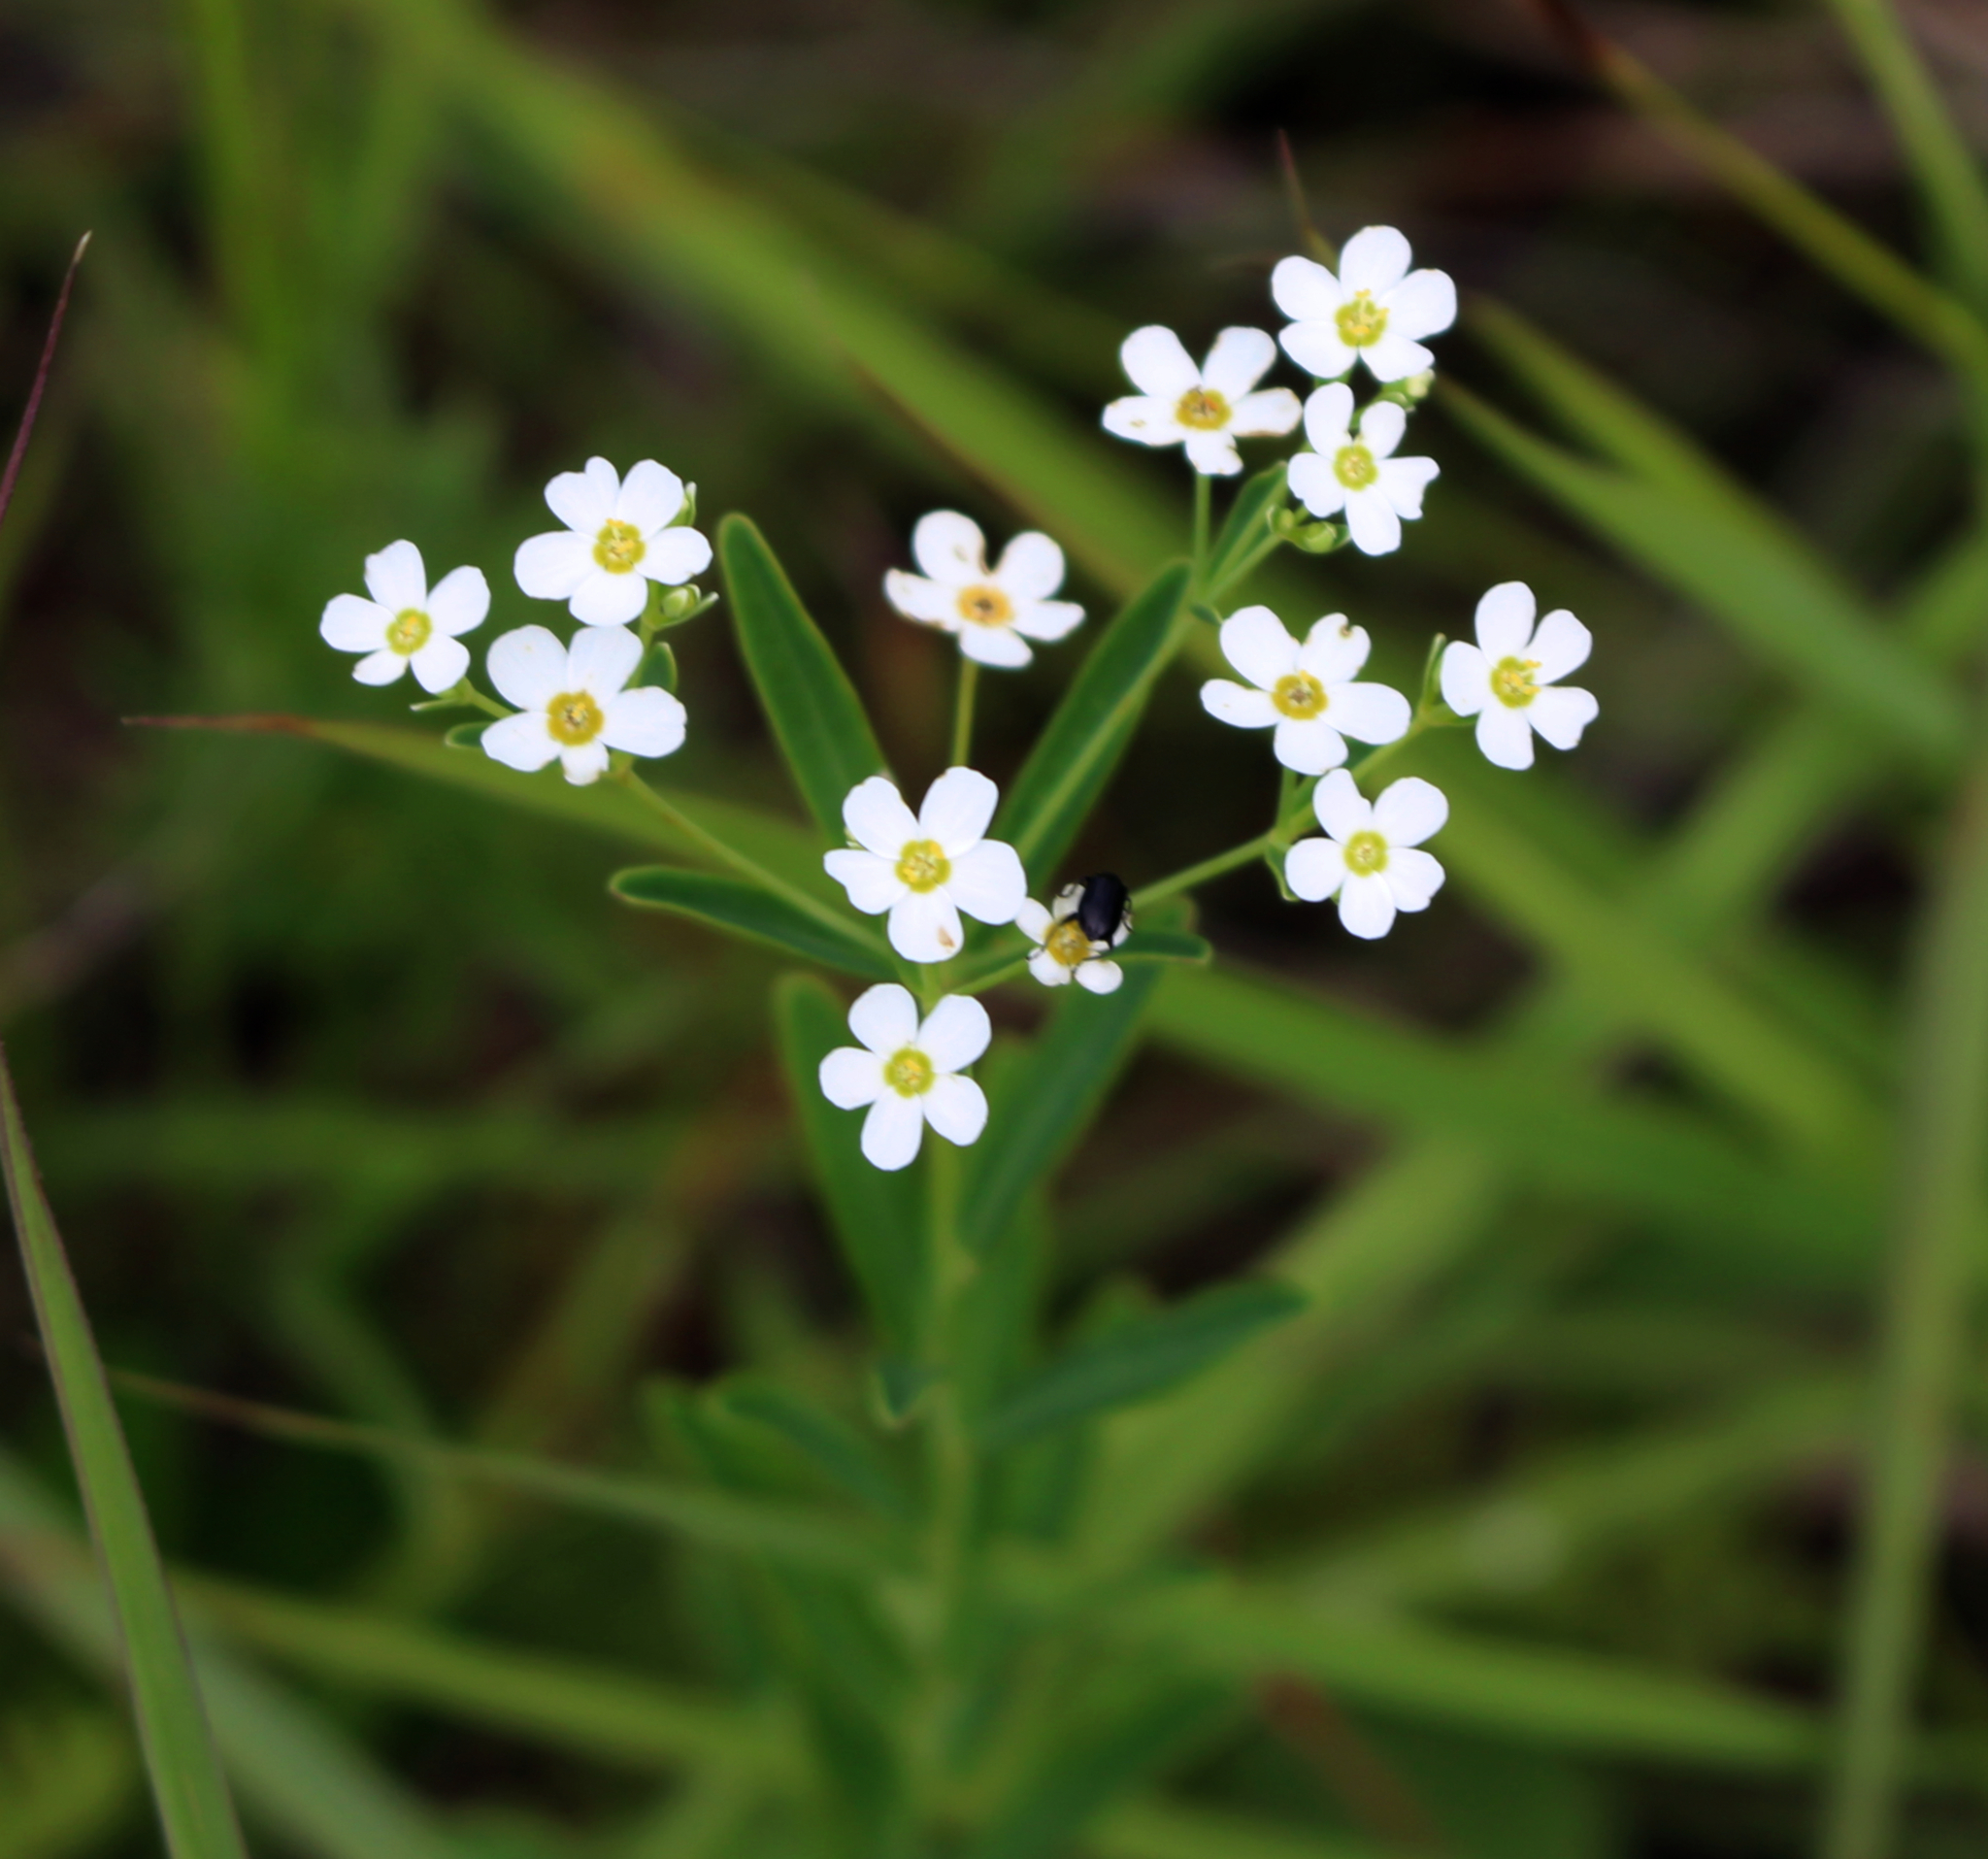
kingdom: Plantae
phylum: Tracheophyta
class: Magnoliopsida
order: Malpighiales
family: Euphorbiaceae
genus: Euphorbia
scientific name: Euphorbia corollata
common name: Flowering spurge
